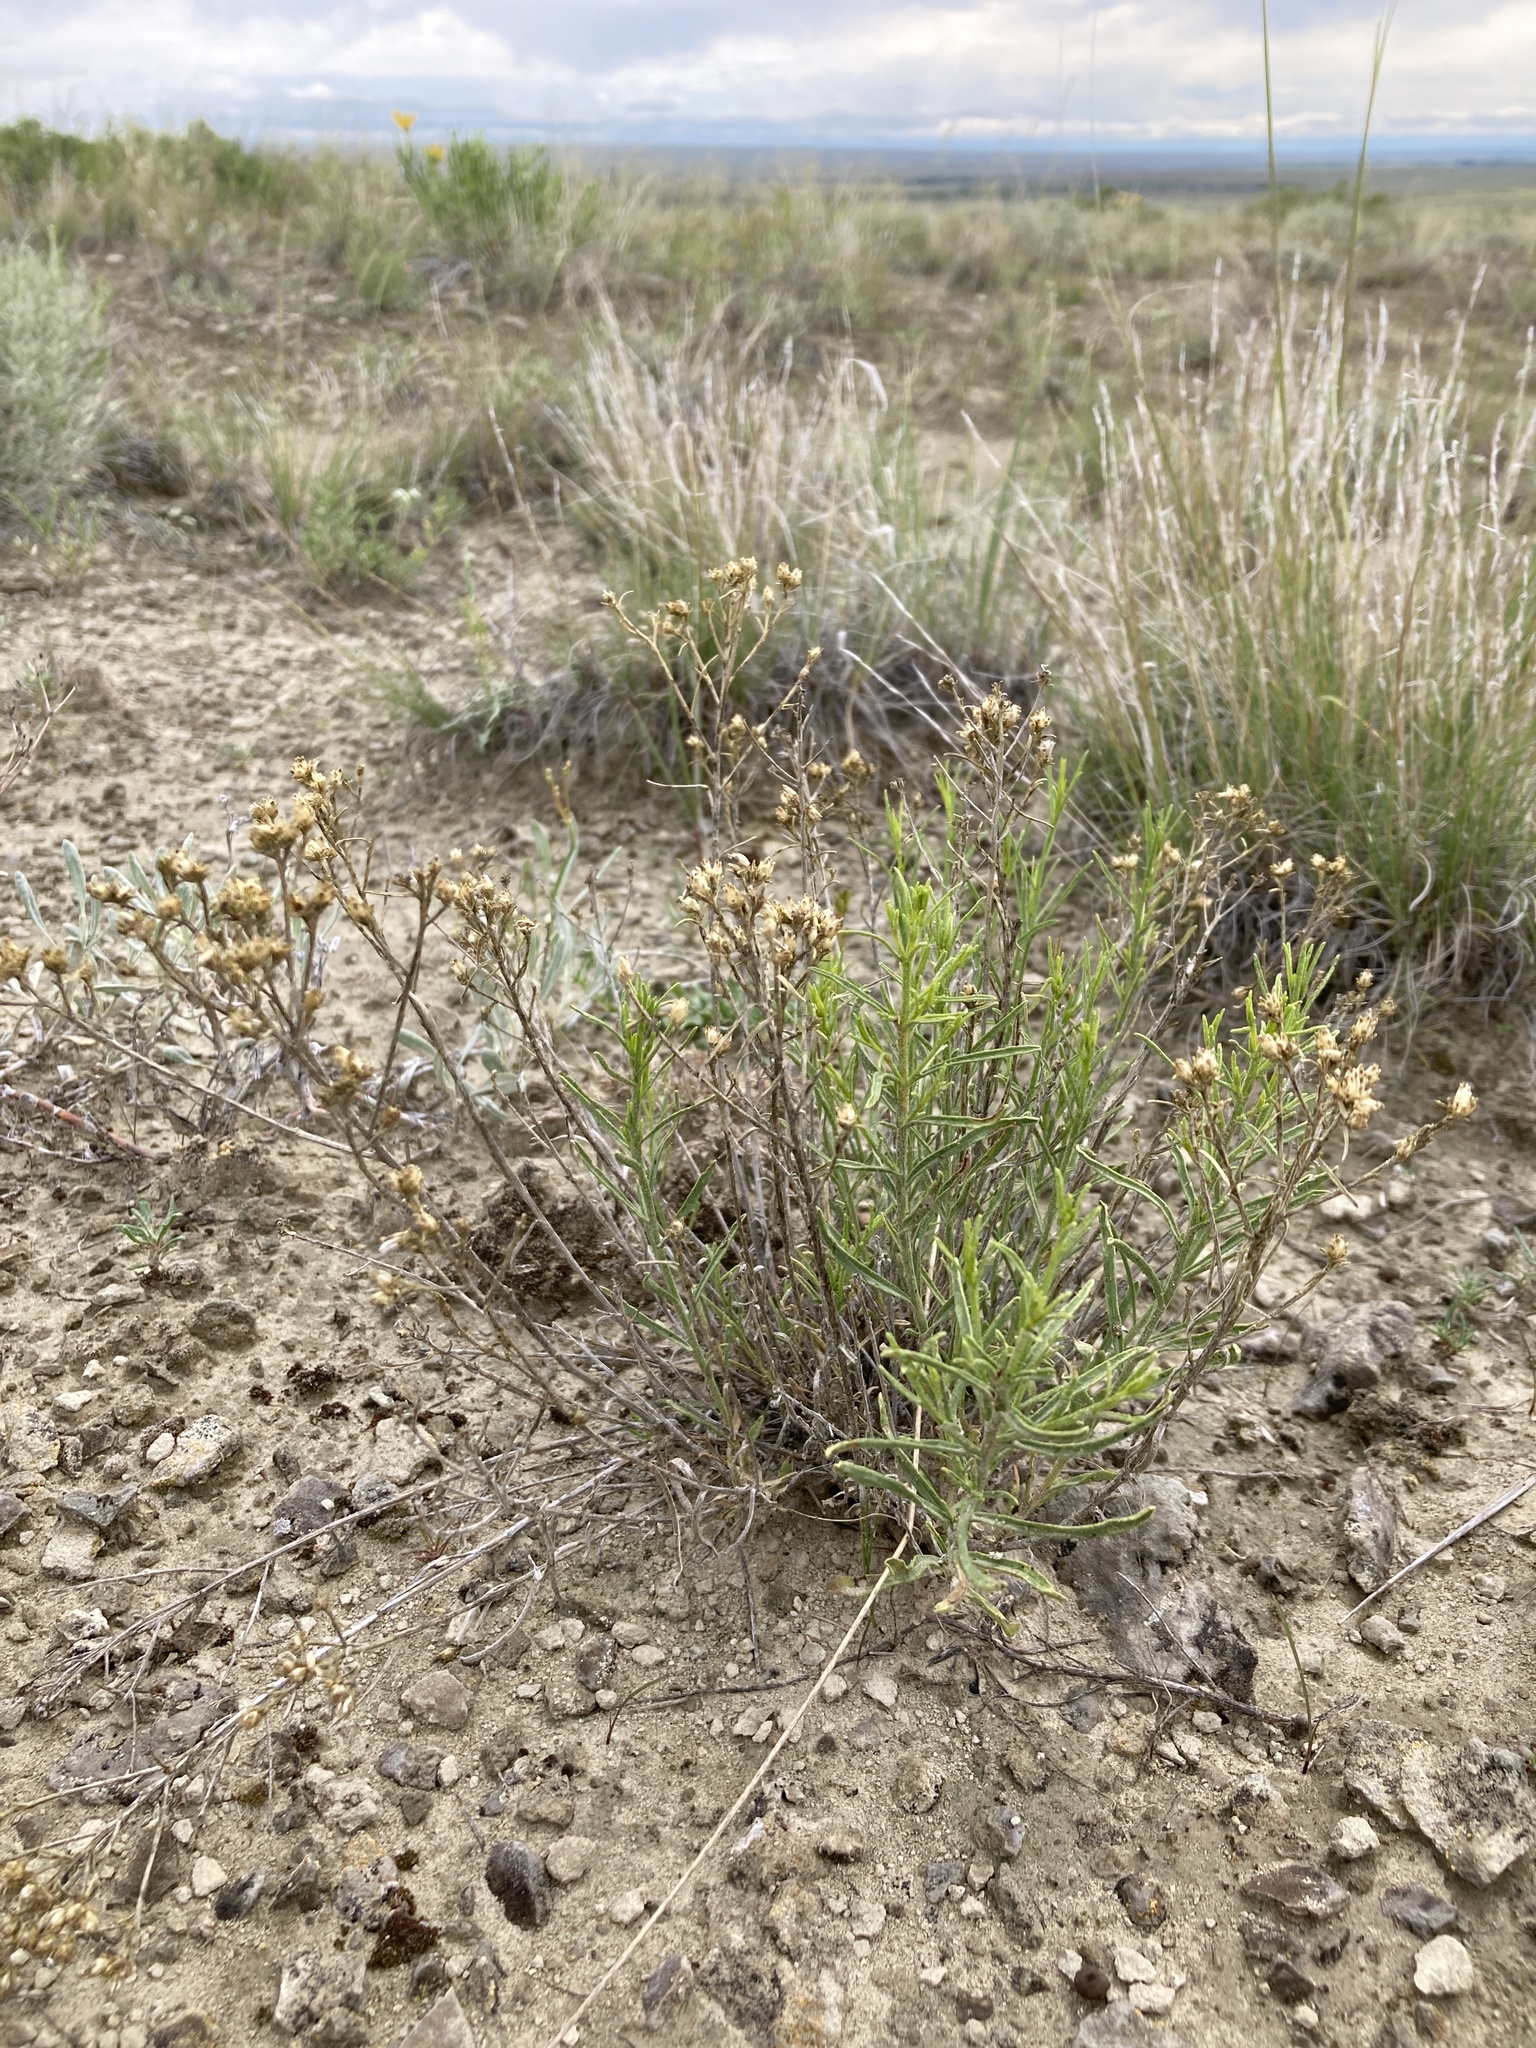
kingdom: Plantae
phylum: Tracheophyta
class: Magnoliopsida
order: Asterales
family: Asteraceae
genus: Gutierrezia
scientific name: Gutierrezia sarothrae
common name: Broom snakeweed
